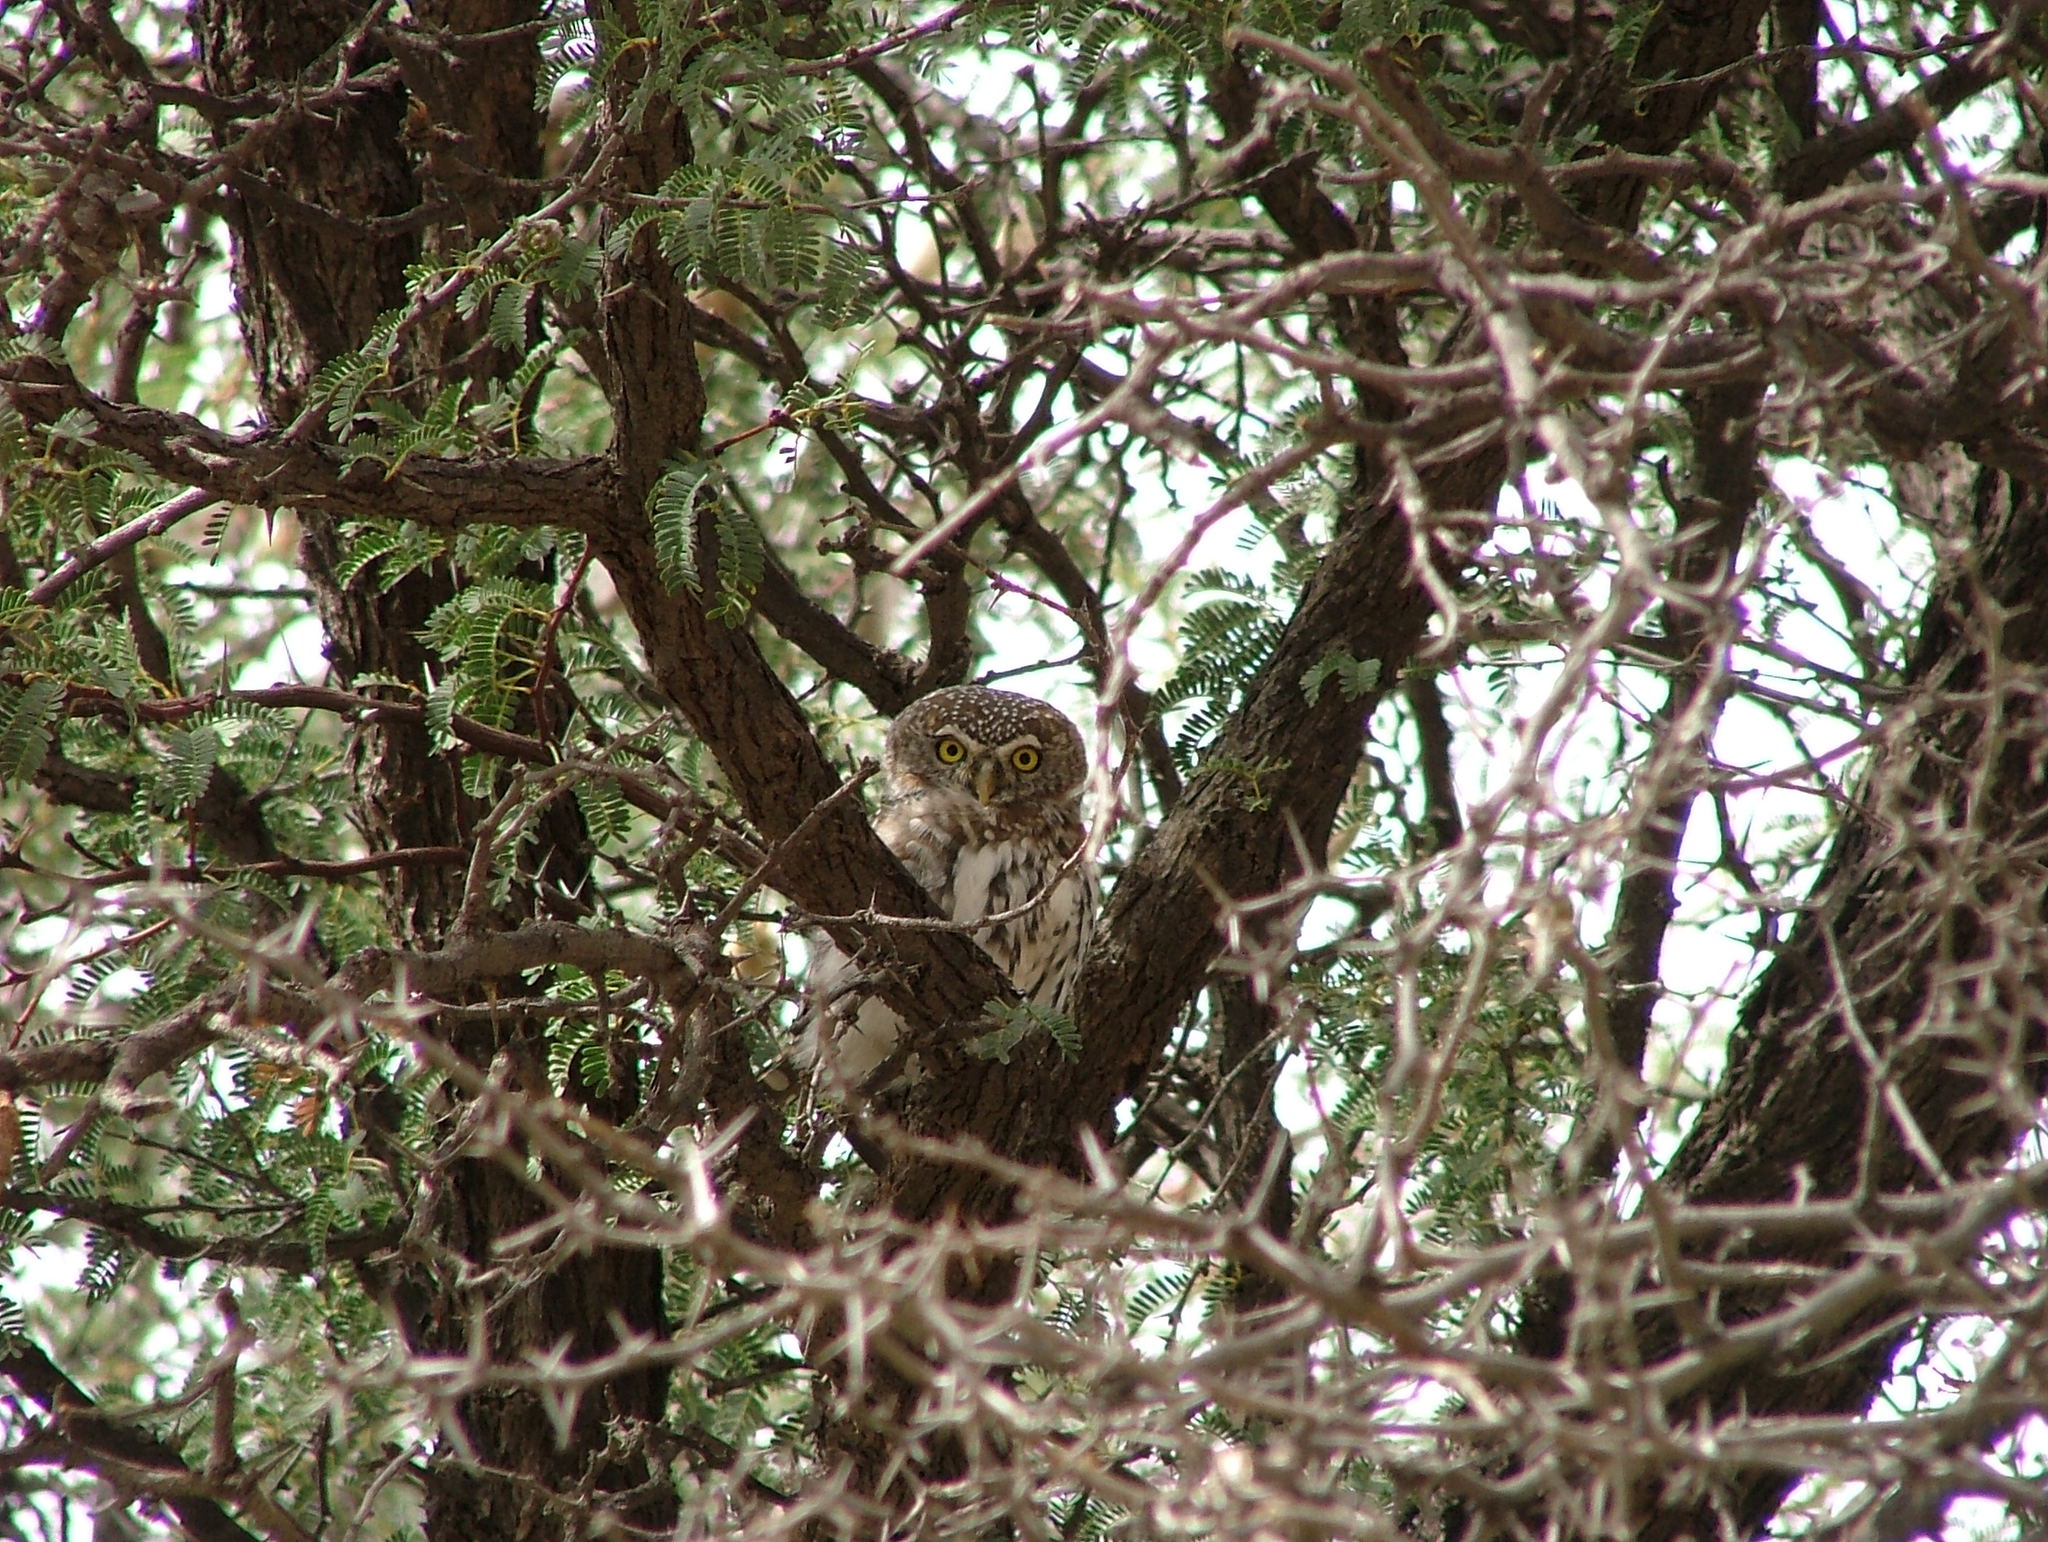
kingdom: Animalia
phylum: Chordata
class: Aves
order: Strigiformes
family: Strigidae
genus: Glaucidium
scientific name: Glaucidium perlatum
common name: Pearl-spotted owlet
